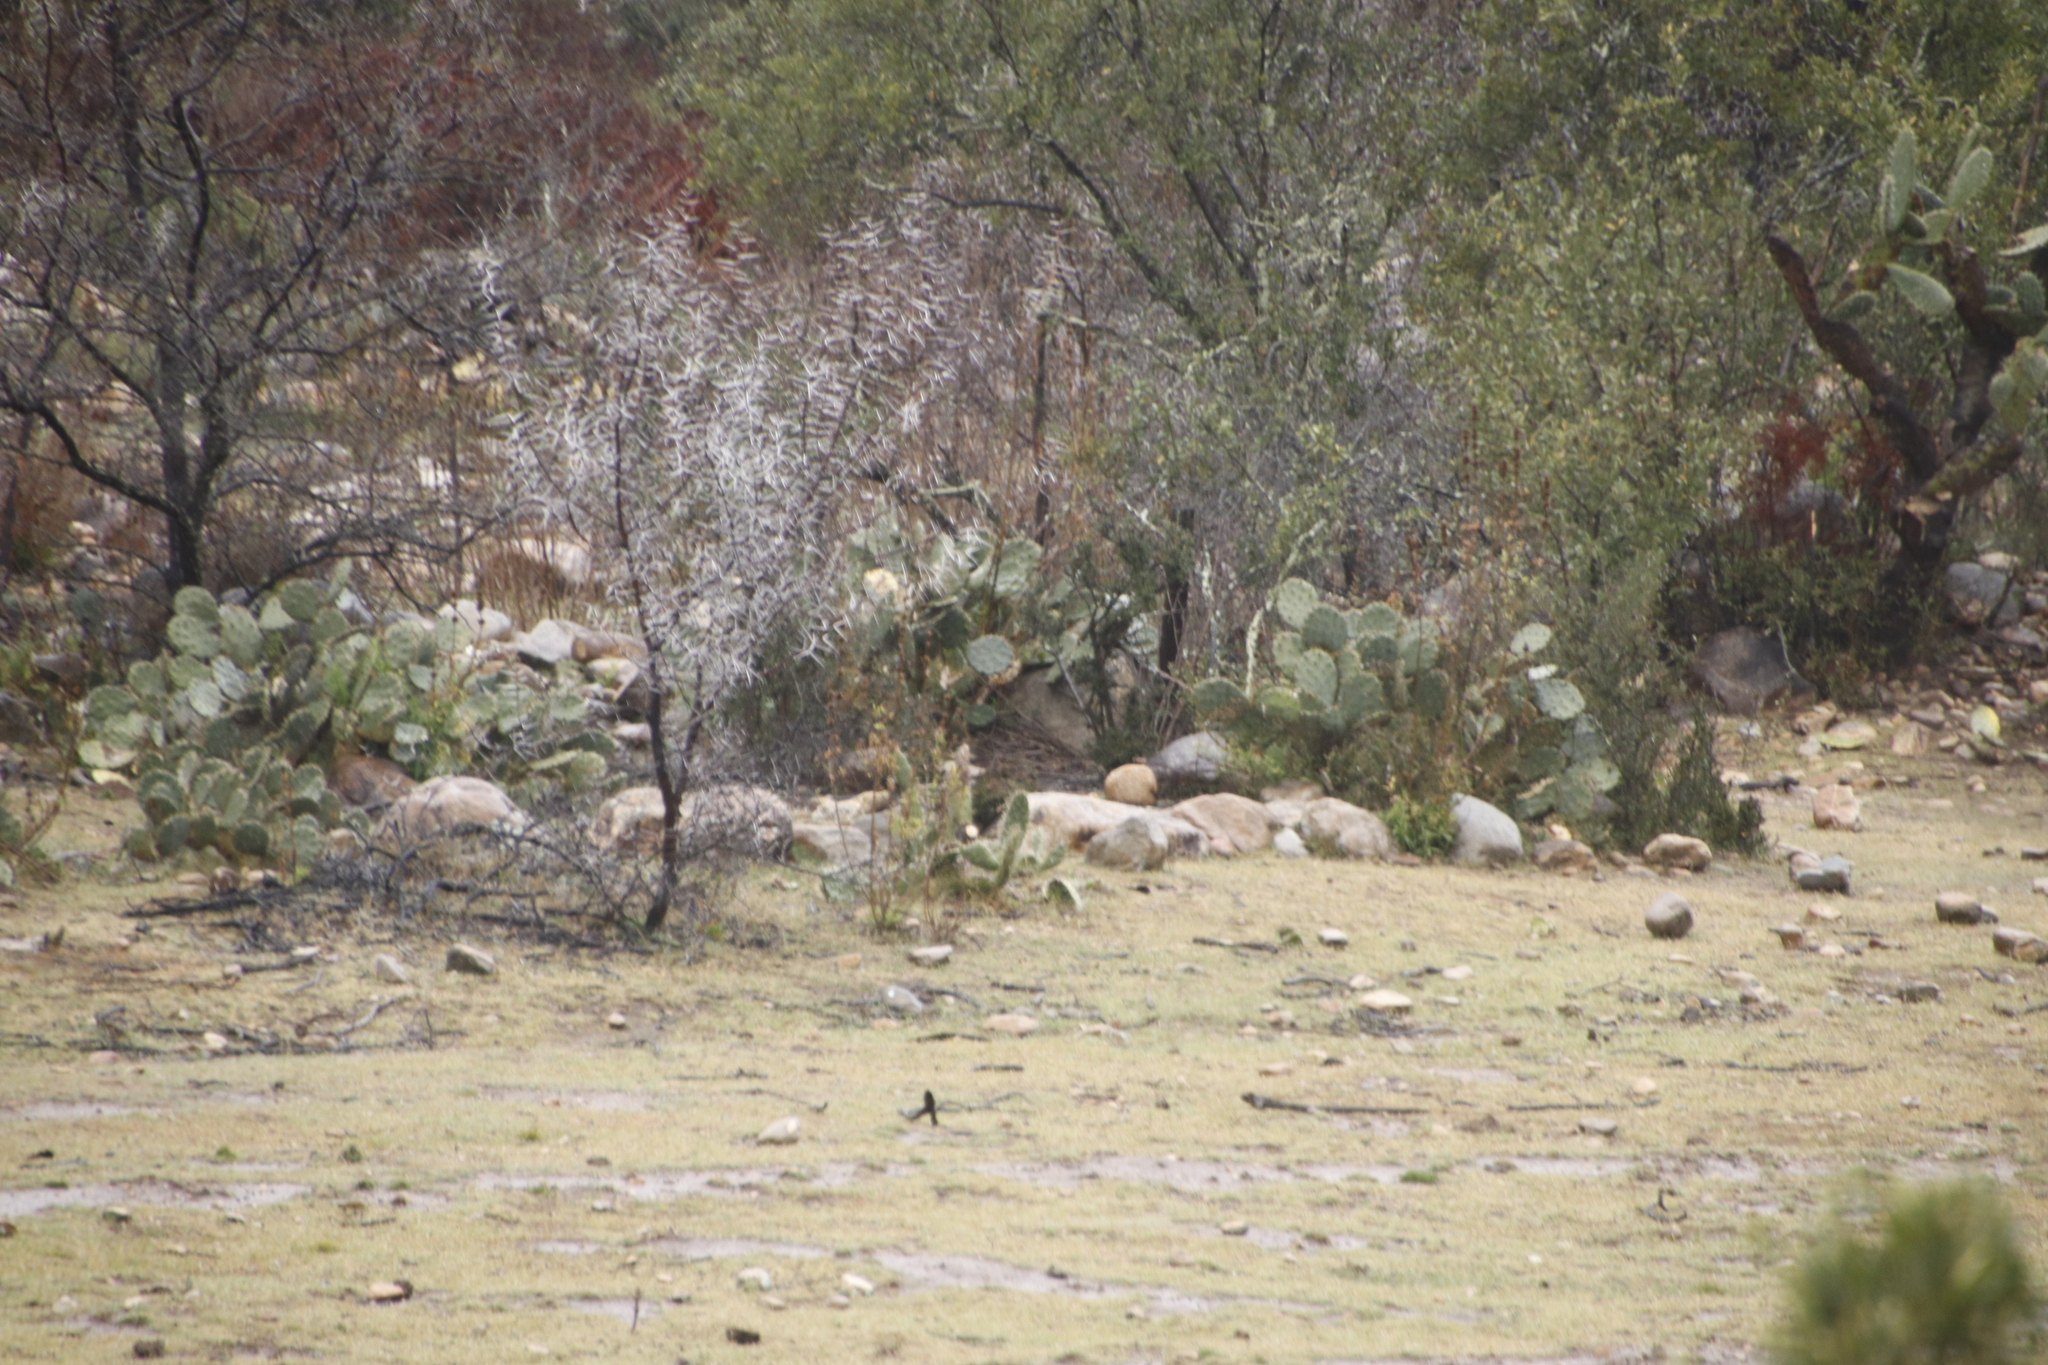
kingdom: Plantae
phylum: Tracheophyta
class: Magnoliopsida
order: Fabales
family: Fabaceae
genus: Vachellia
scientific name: Vachellia karroo
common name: Sweet thorn
